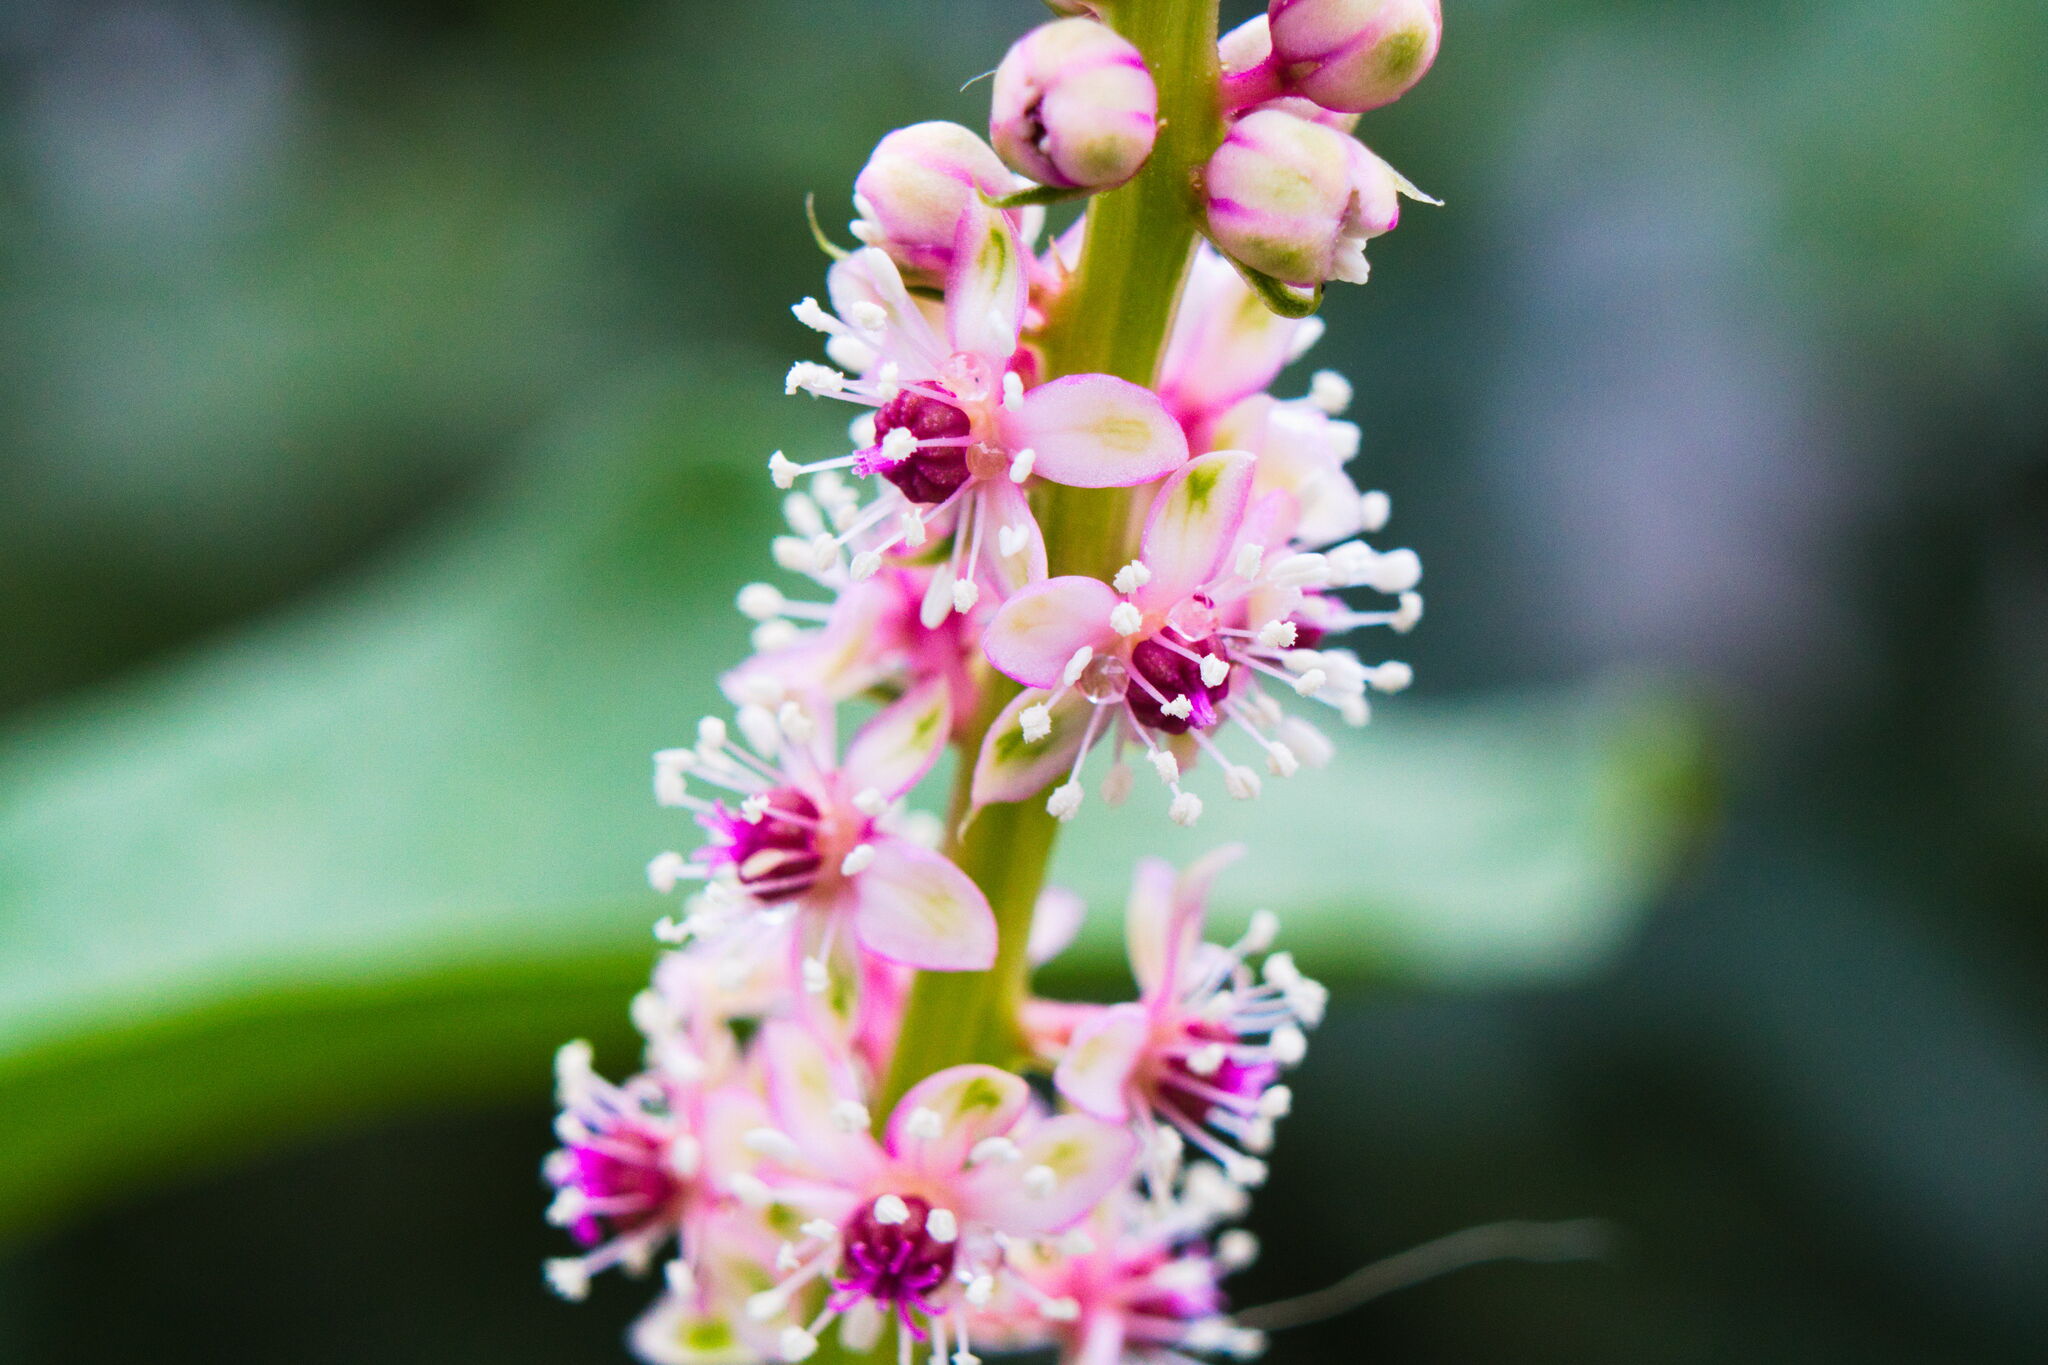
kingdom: Plantae
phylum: Tracheophyta
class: Magnoliopsida
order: Caryophyllales
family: Phytolaccaceae
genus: Phytolacca
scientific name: Phytolacca icosandra
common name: Button pokeweed
